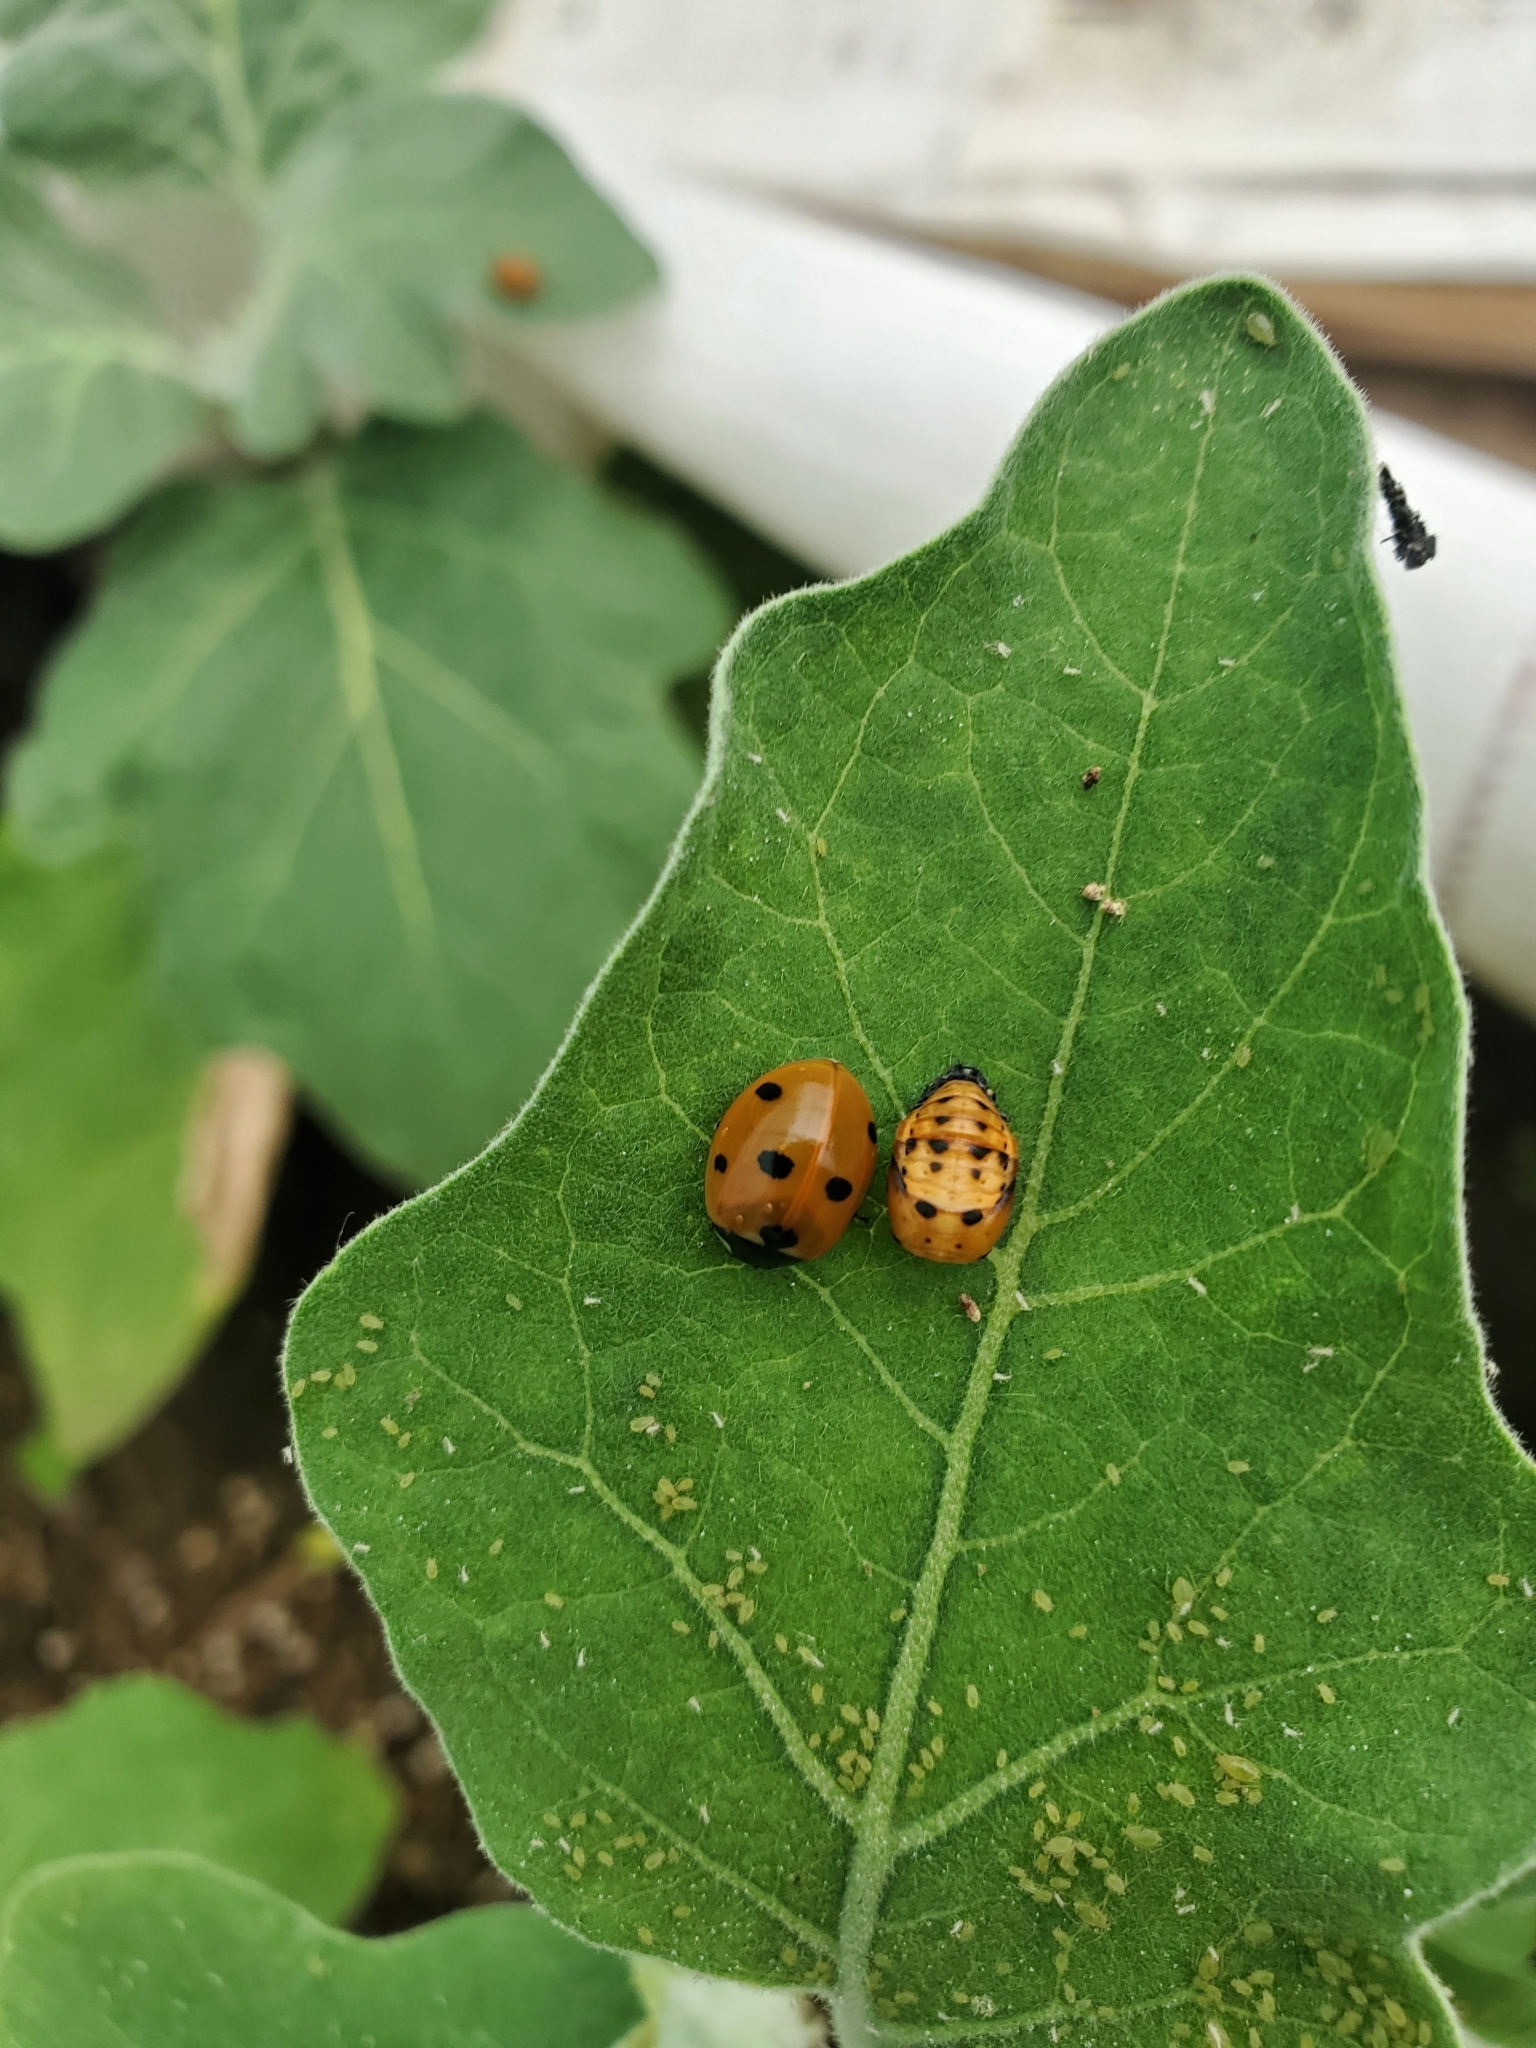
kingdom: Animalia
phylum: Arthropoda
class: Insecta
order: Coleoptera
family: Coccinellidae
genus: Coccinella
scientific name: Coccinella septempunctata
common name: Sevenspotted lady beetle
